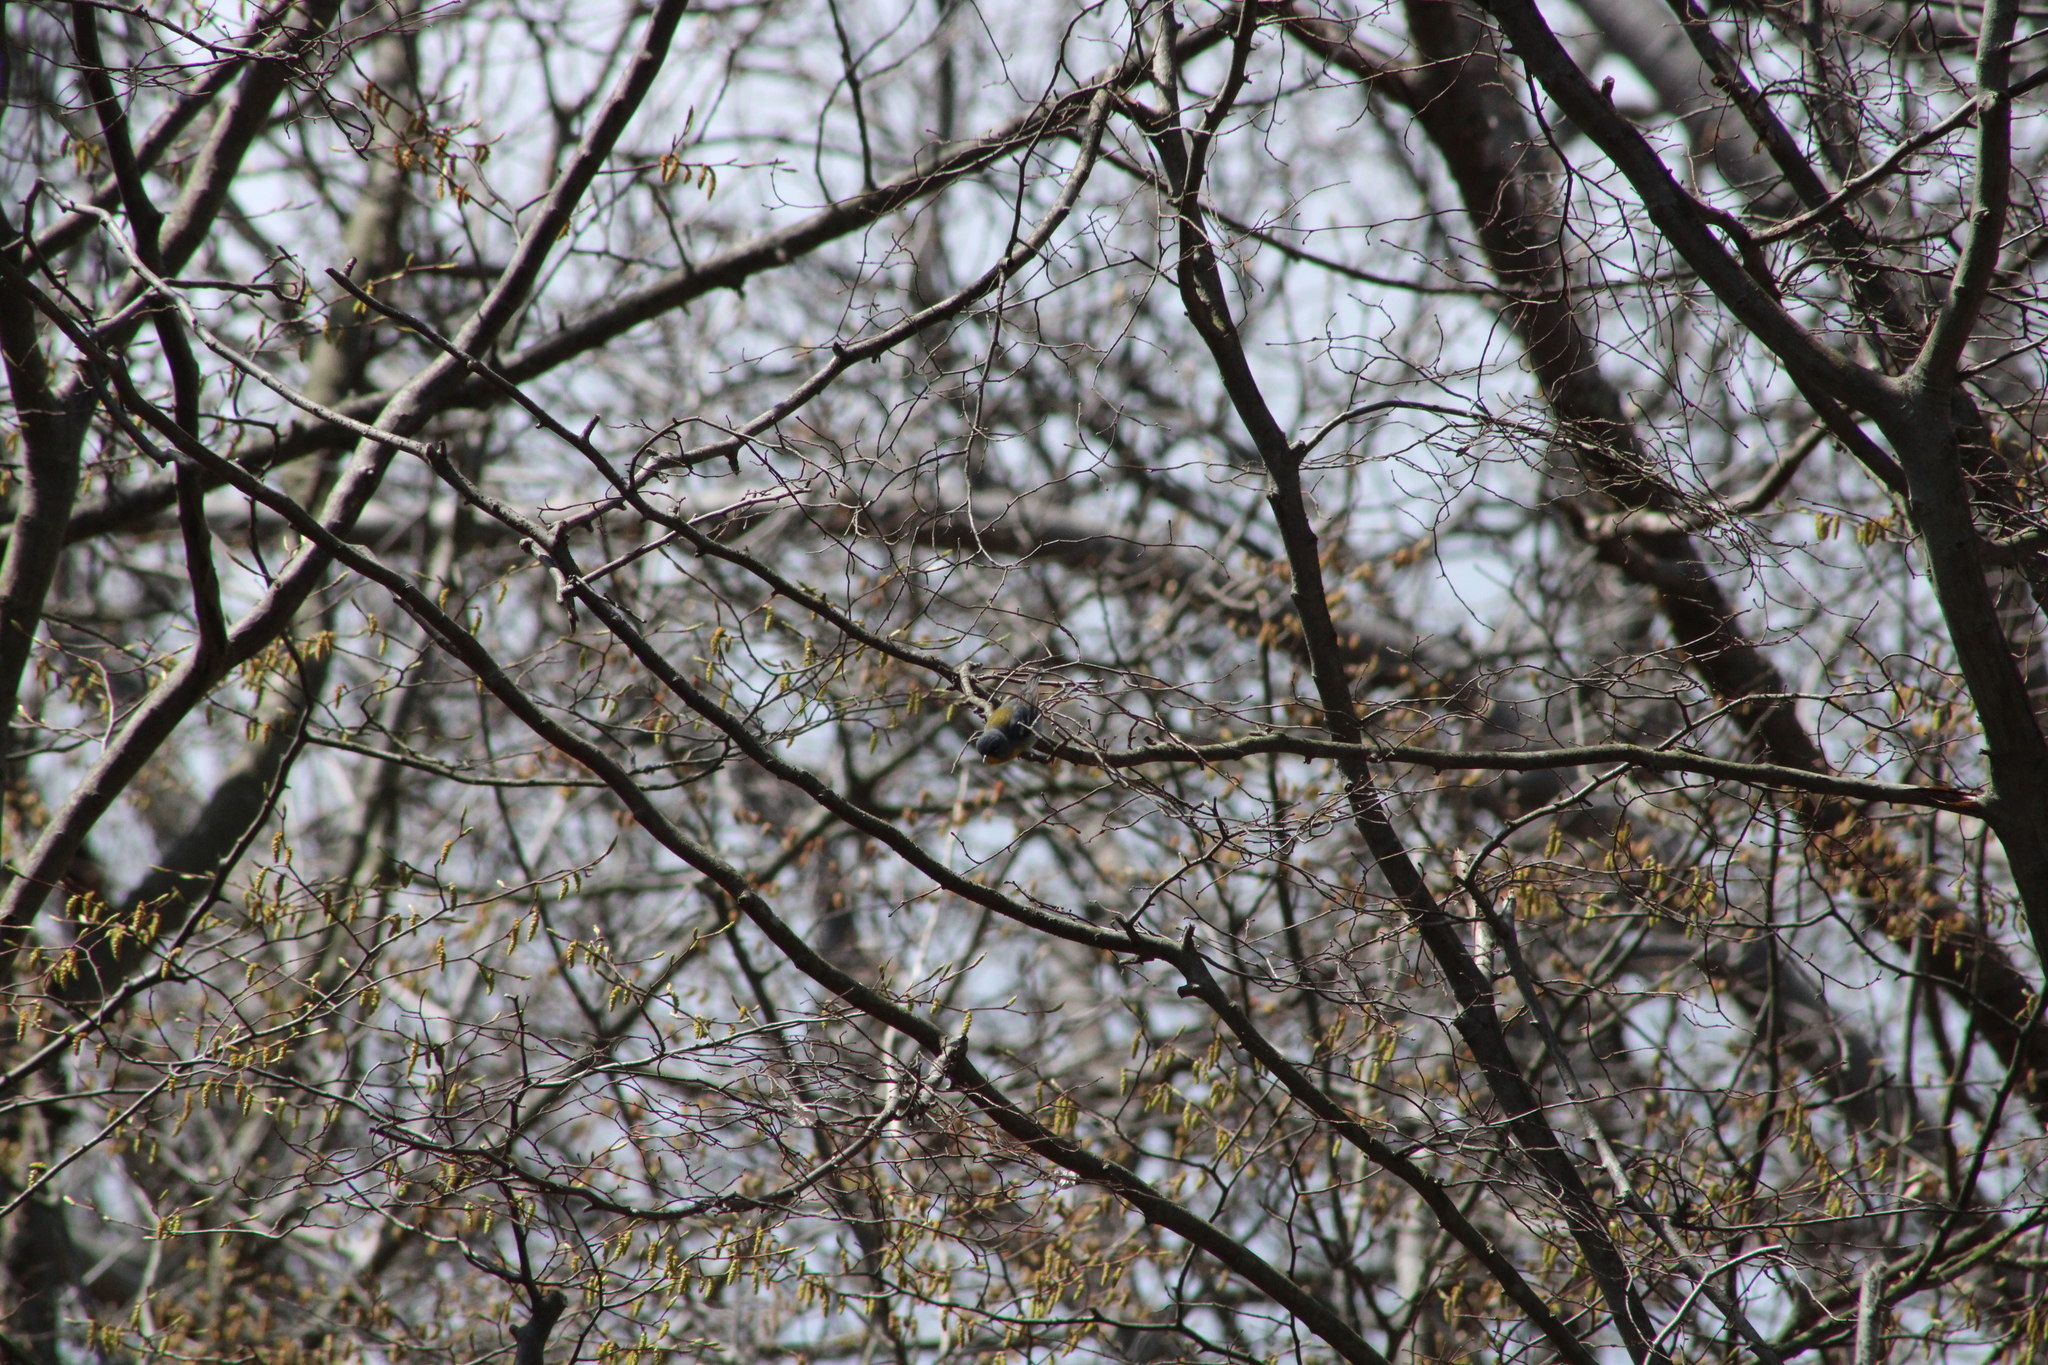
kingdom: Animalia
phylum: Chordata
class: Aves
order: Passeriformes
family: Parulidae
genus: Setophaga
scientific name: Setophaga americana
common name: Northern parula
